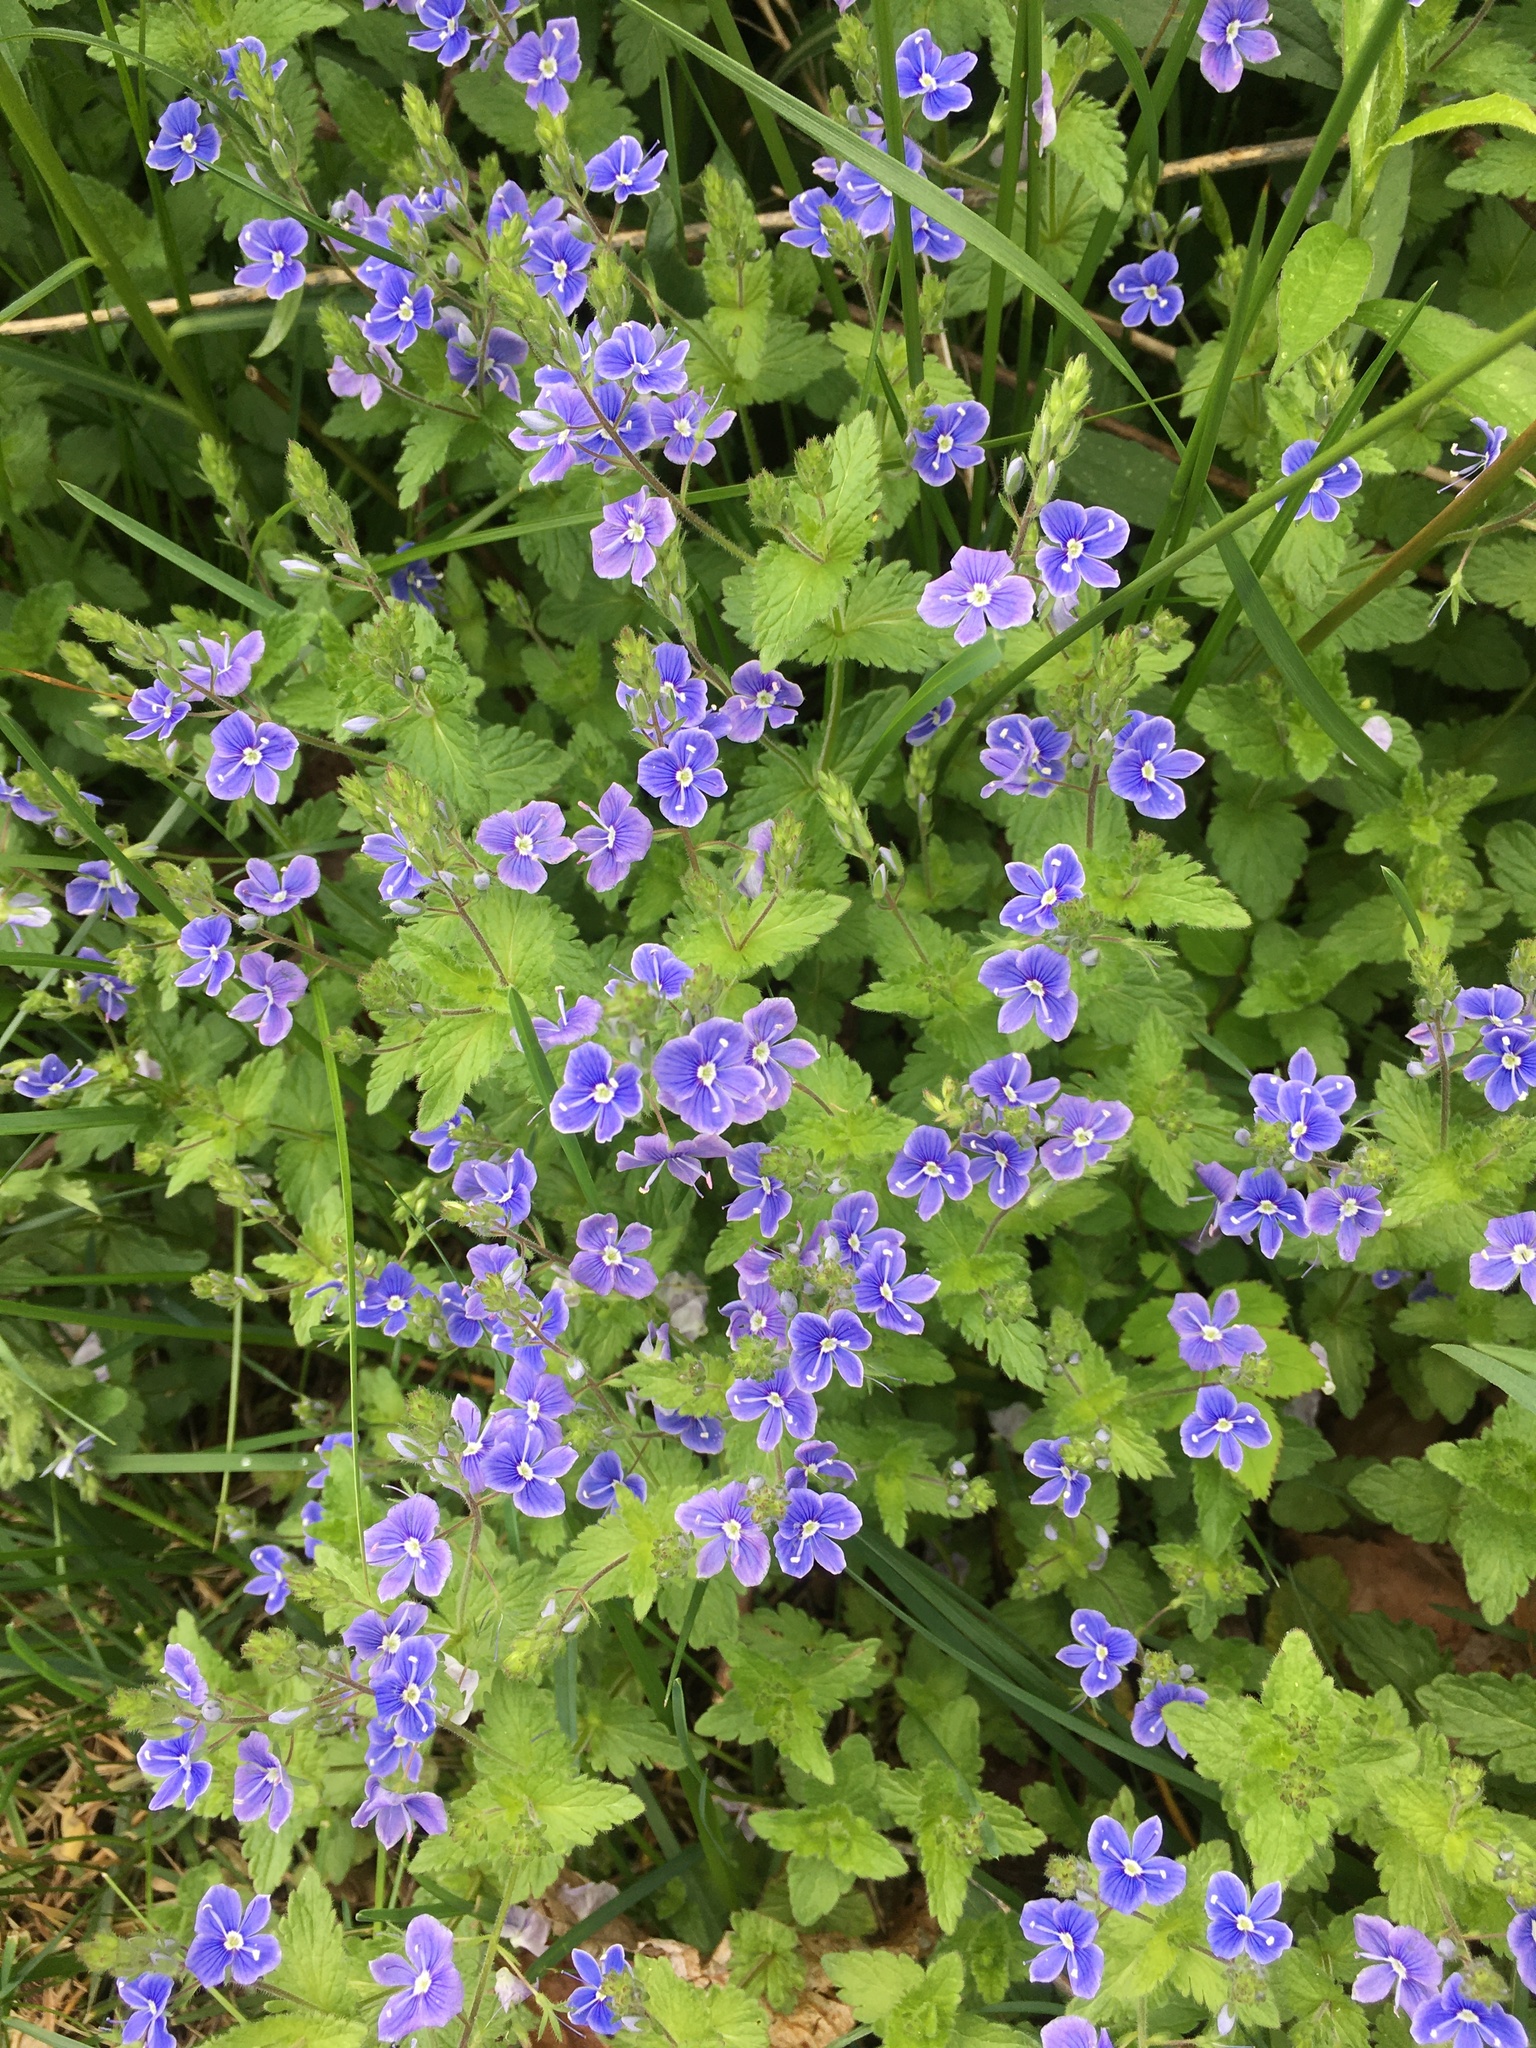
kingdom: Plantae
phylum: Tracheophyta
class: Magnoliopsida
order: Lamiales
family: Plantaginaceae
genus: Veronica
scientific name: Veronica chamaedrys
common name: Germander speedwell
